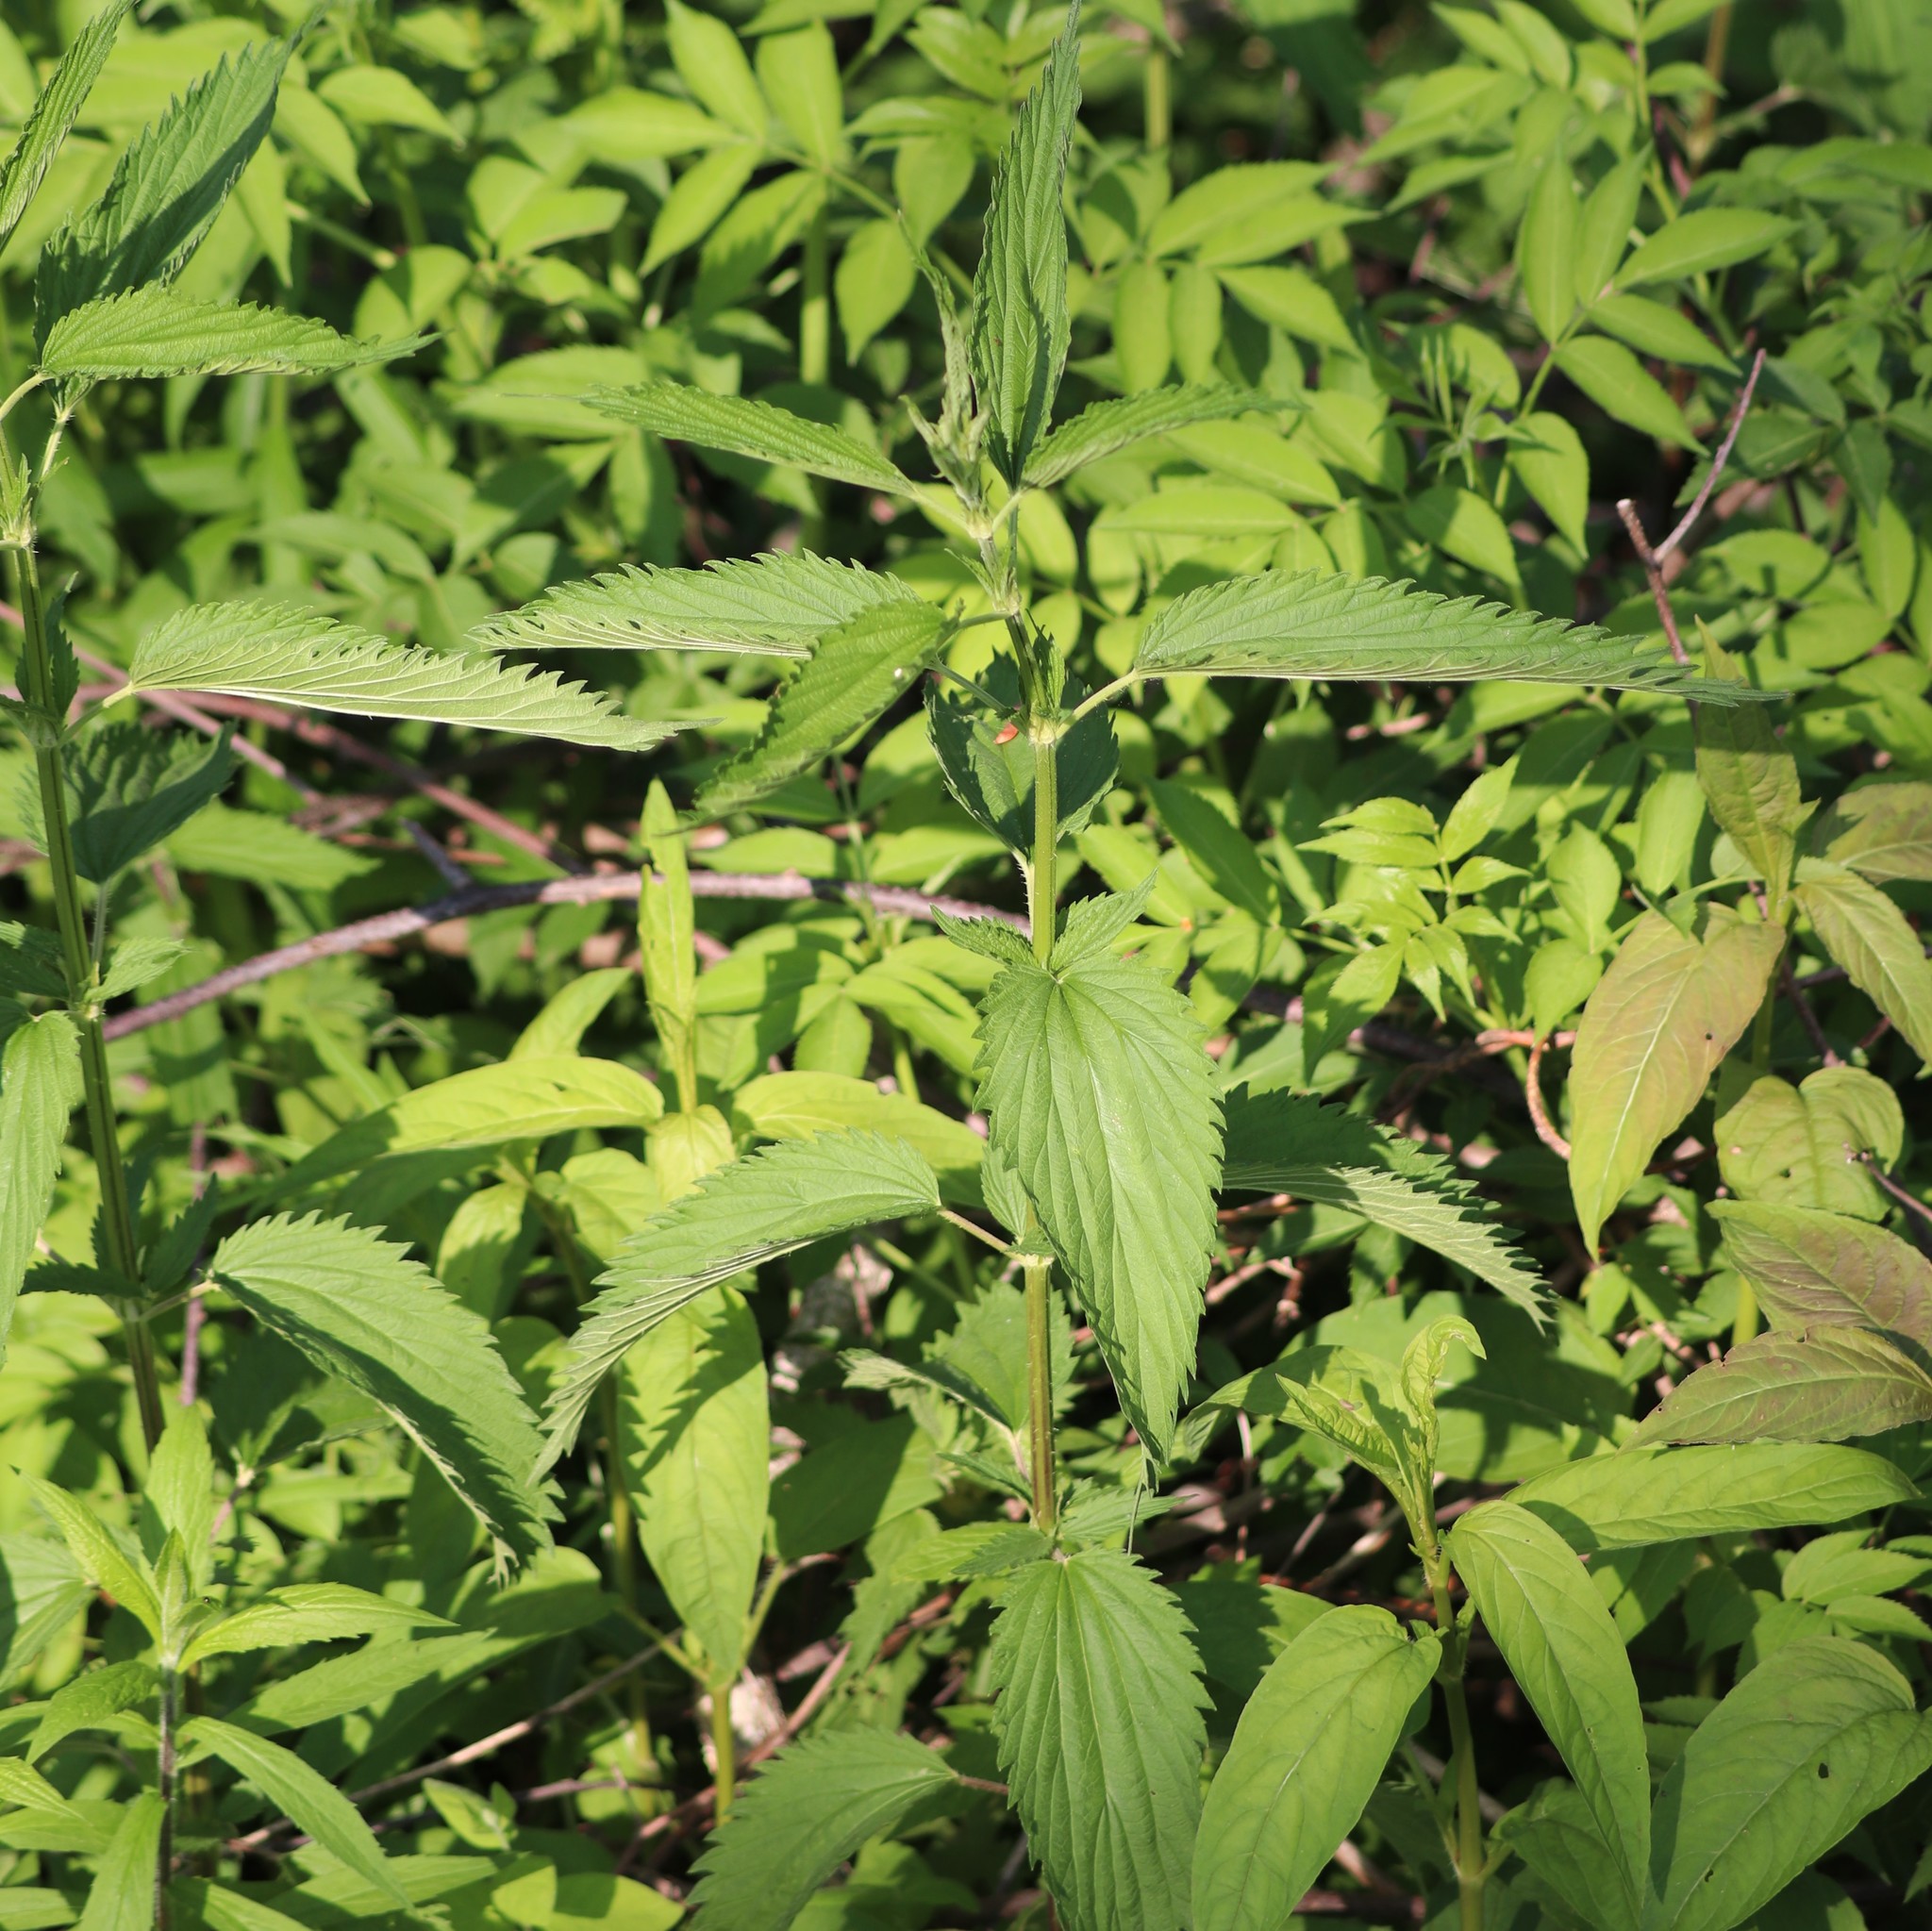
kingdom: Plantae
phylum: Tracheophyta
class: Magnoliopsida
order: Rosales
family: Urticaceae
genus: Urtica
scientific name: Urtica dioica
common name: Common nettle
